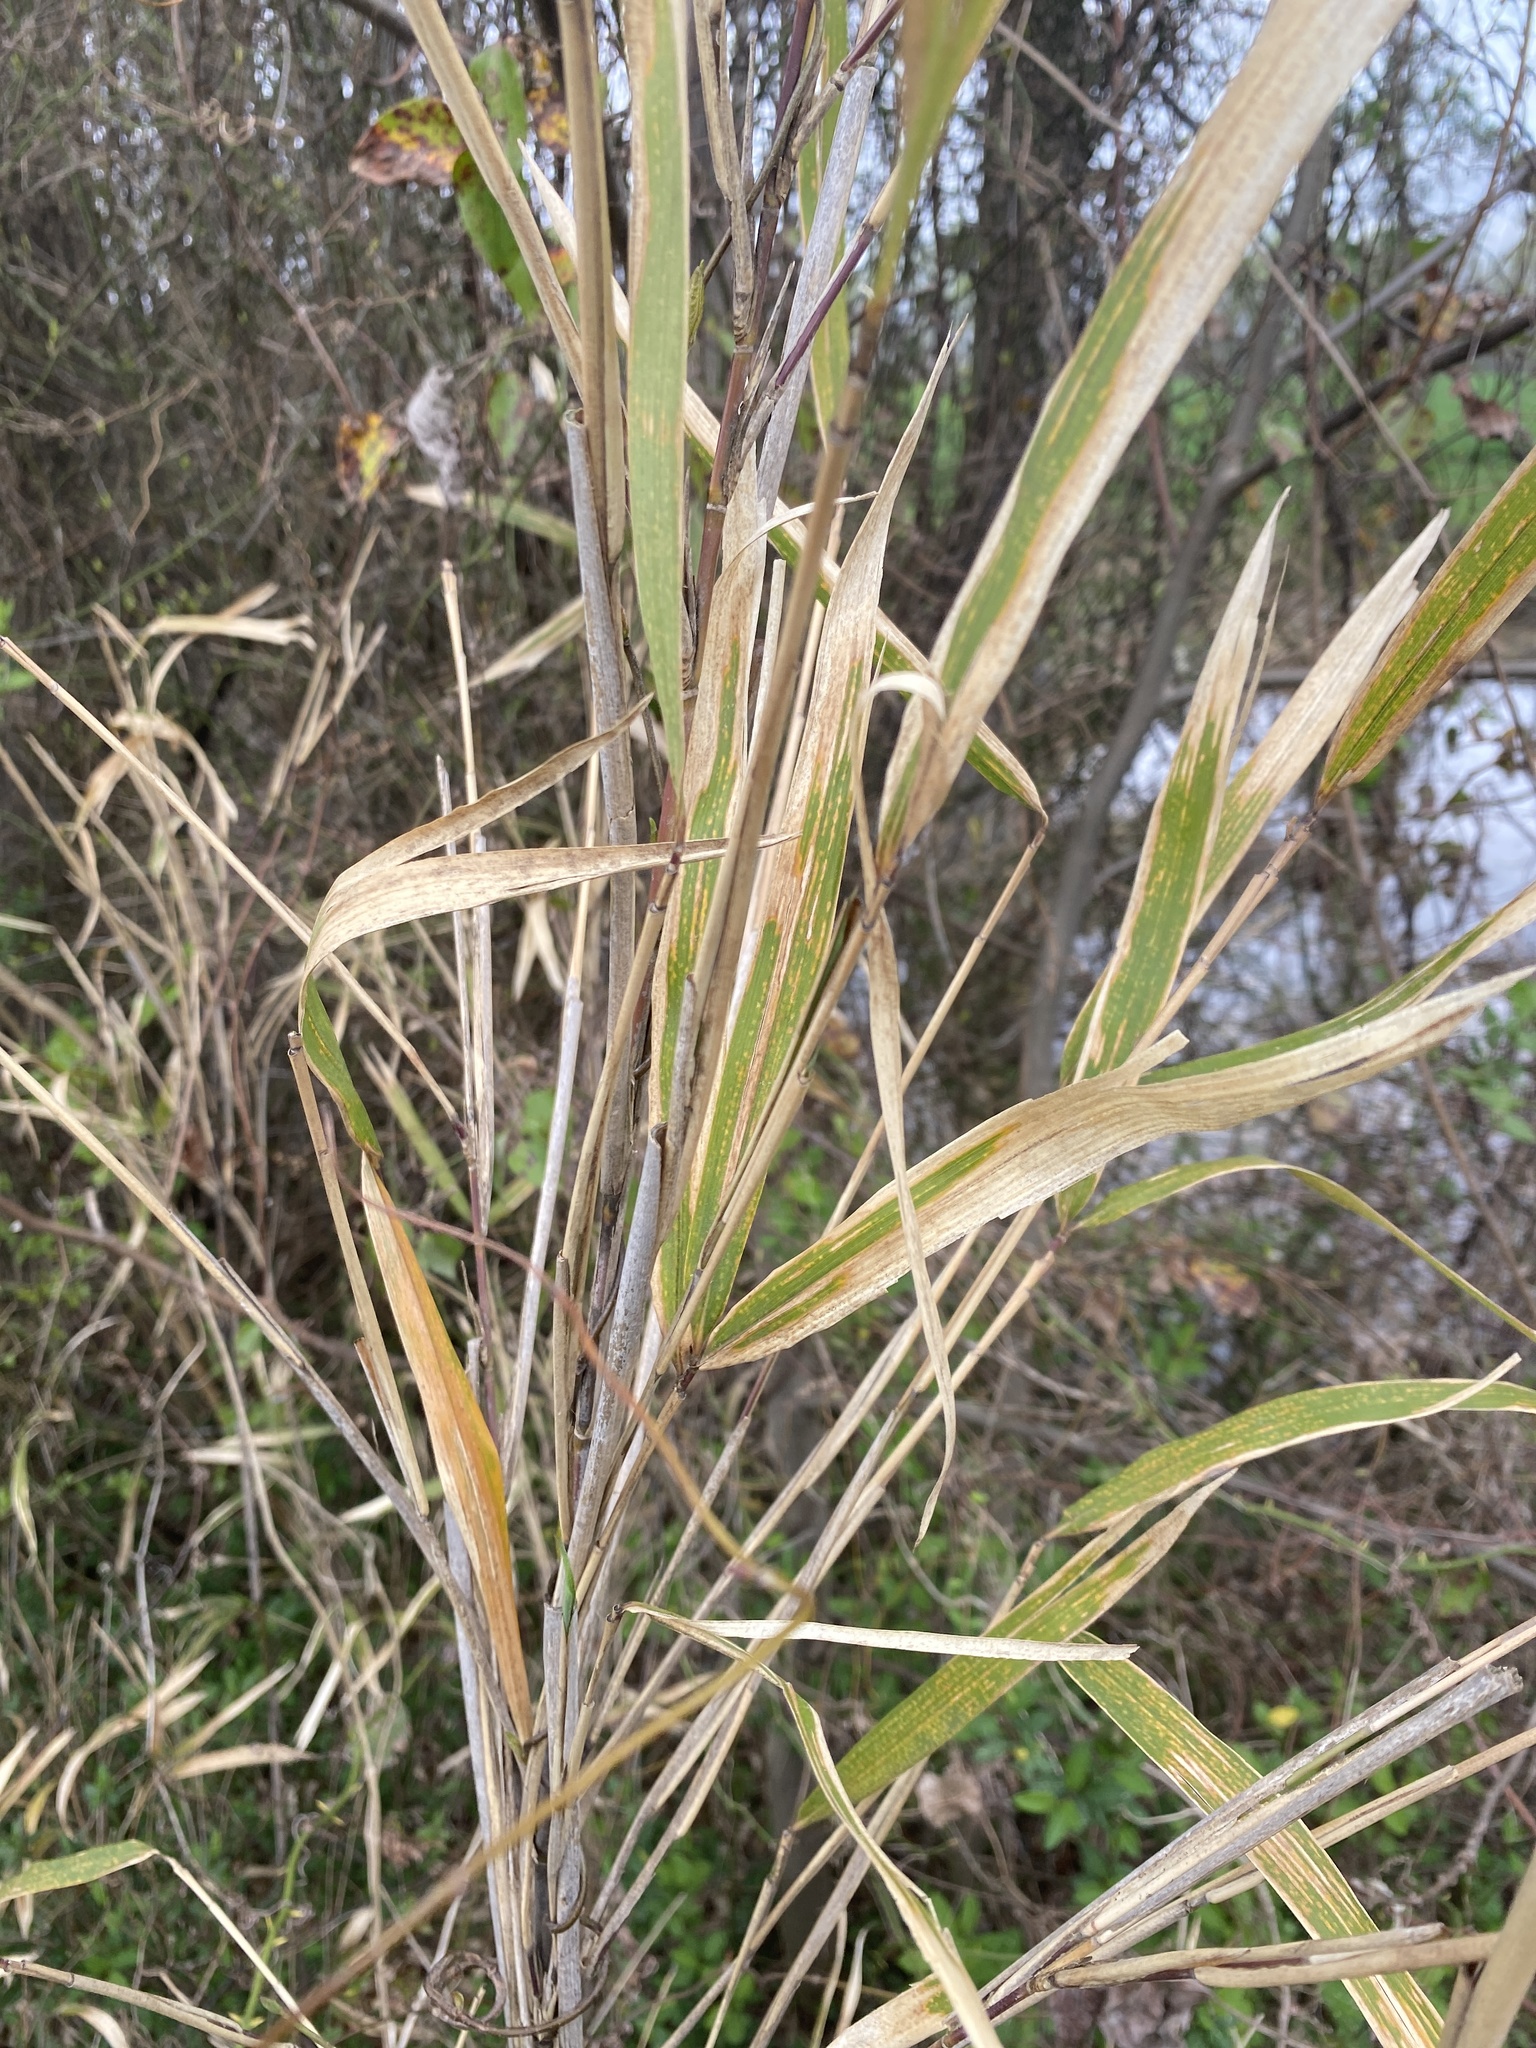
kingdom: Plantae
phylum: Tracheophyta
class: Liliopsida
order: Poales
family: Poaceae
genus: Arundinaria
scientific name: Arundinaria tecta
